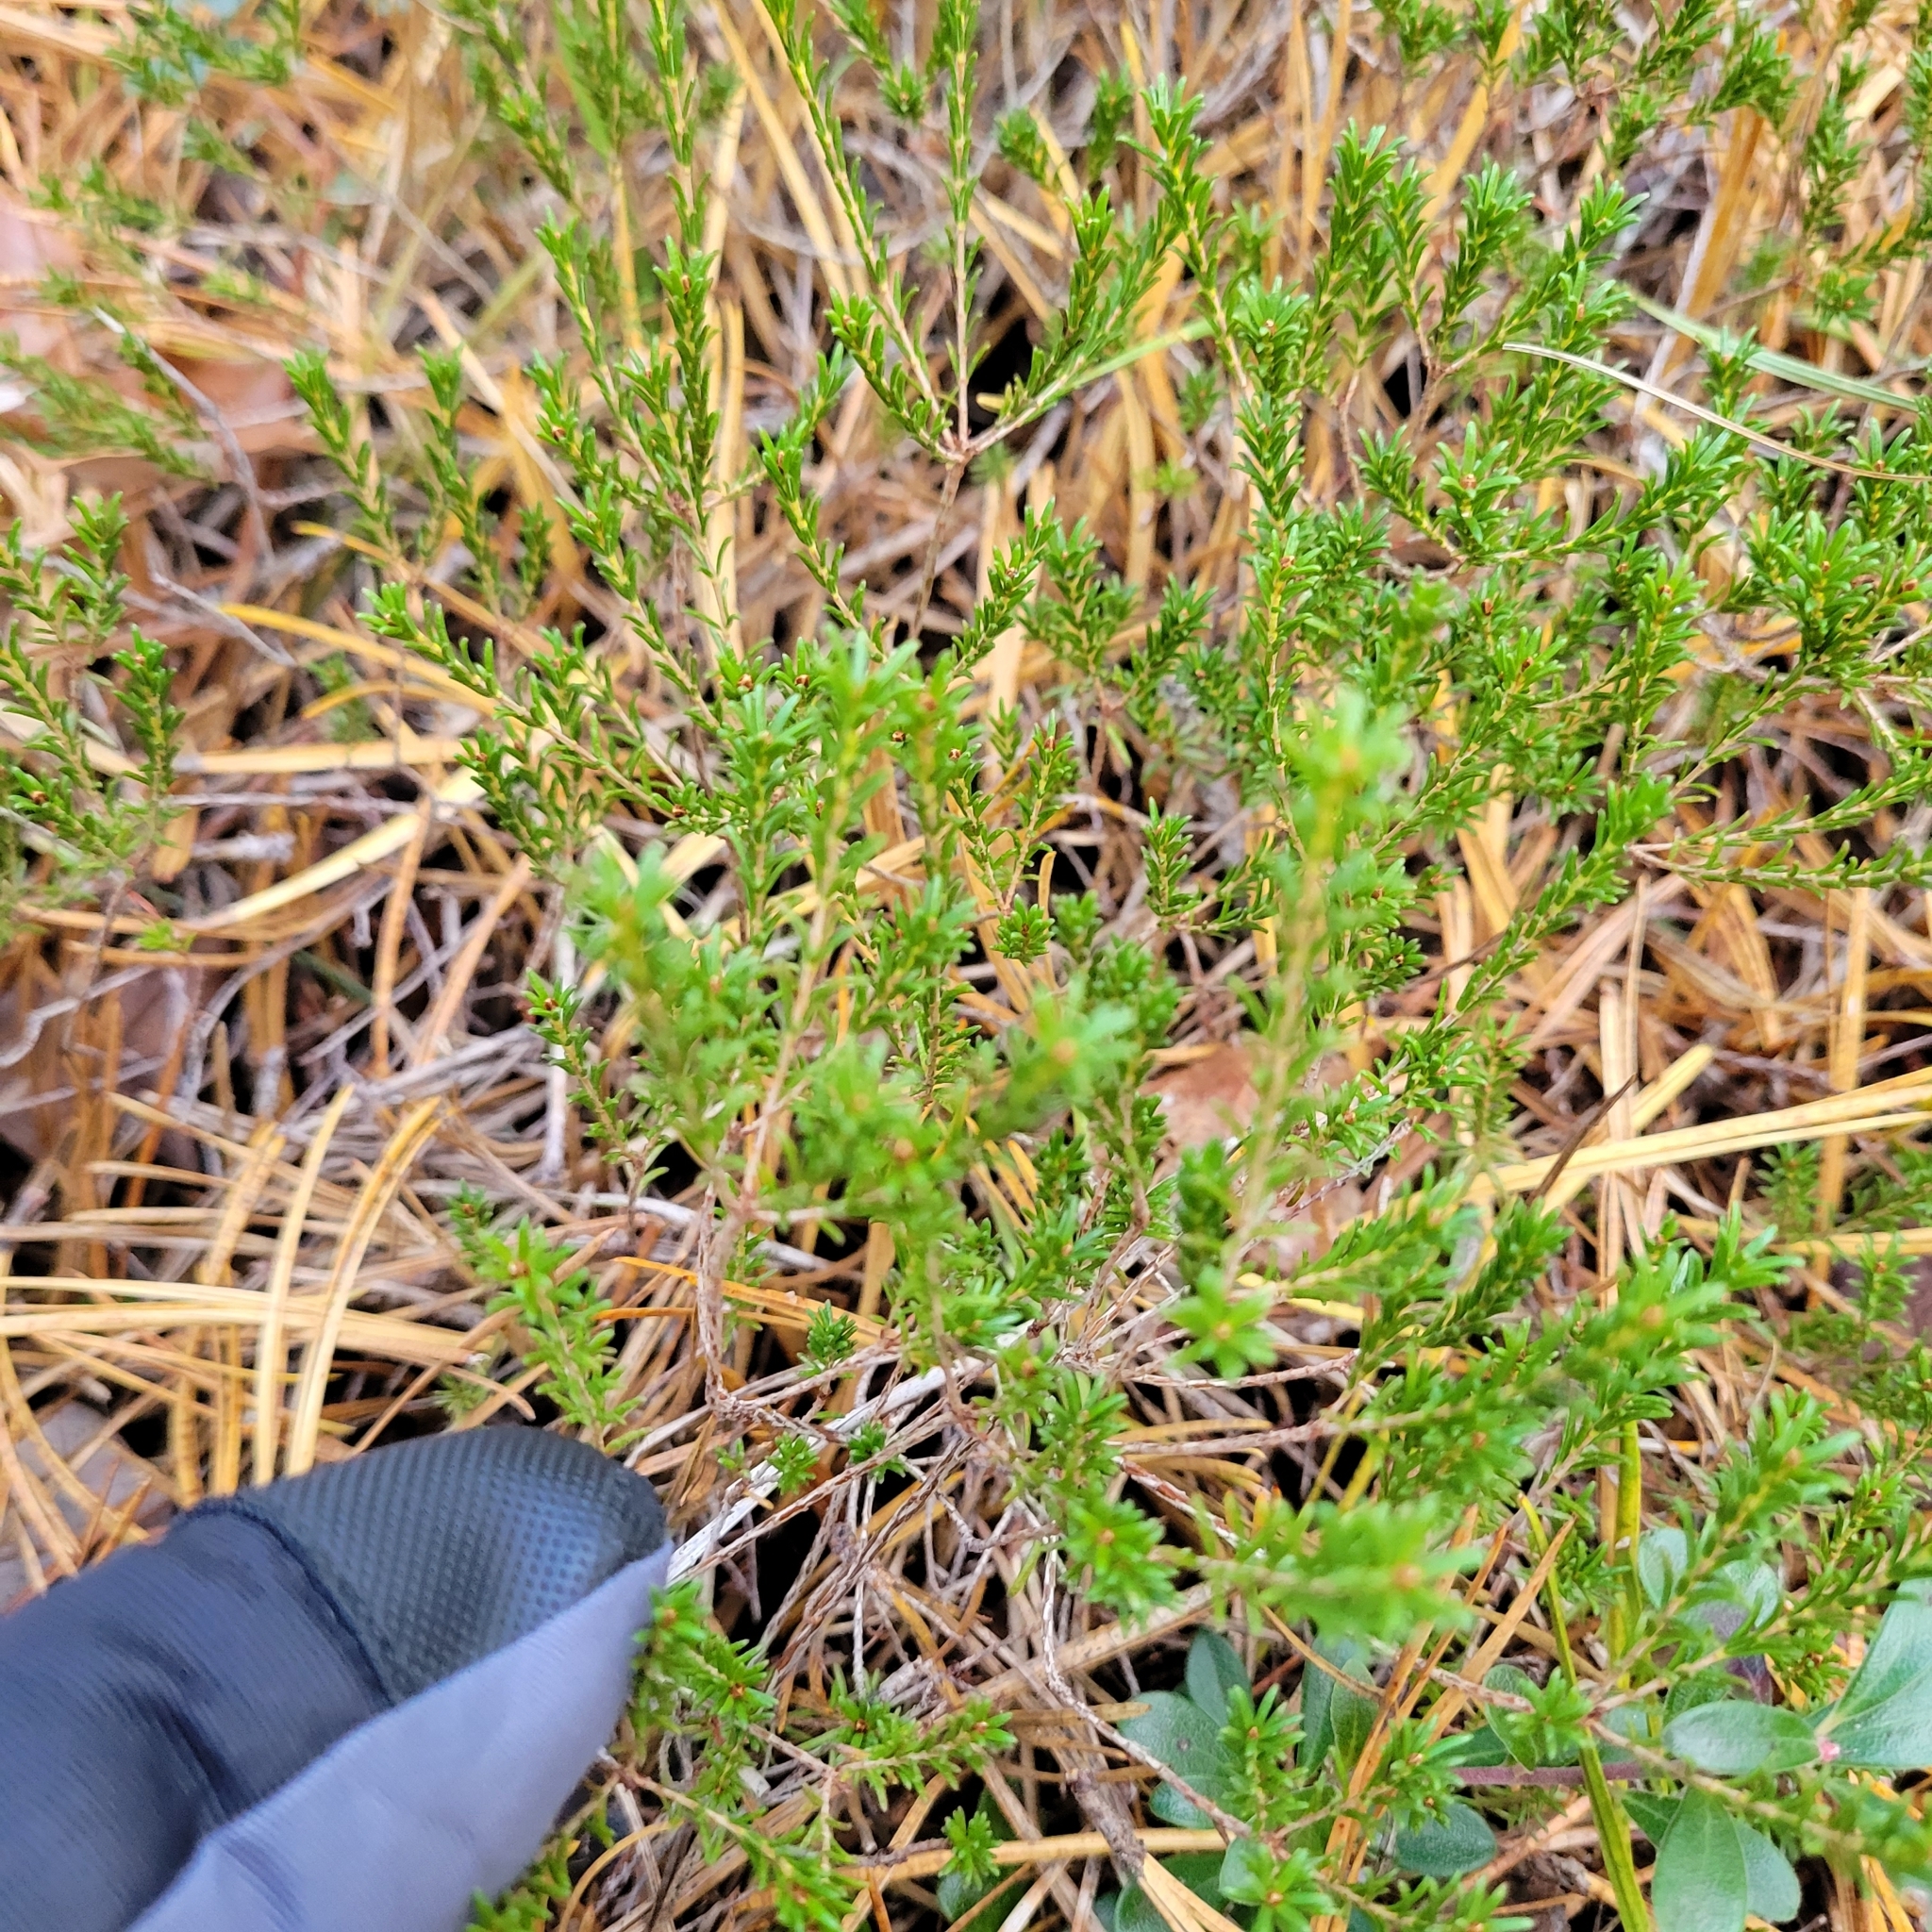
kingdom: Plantae
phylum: Tracheophyta
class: Magnoliopsida
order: Ericales
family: Ericaceae
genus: Corema
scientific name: Corema conradii
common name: Broom-crowberry
